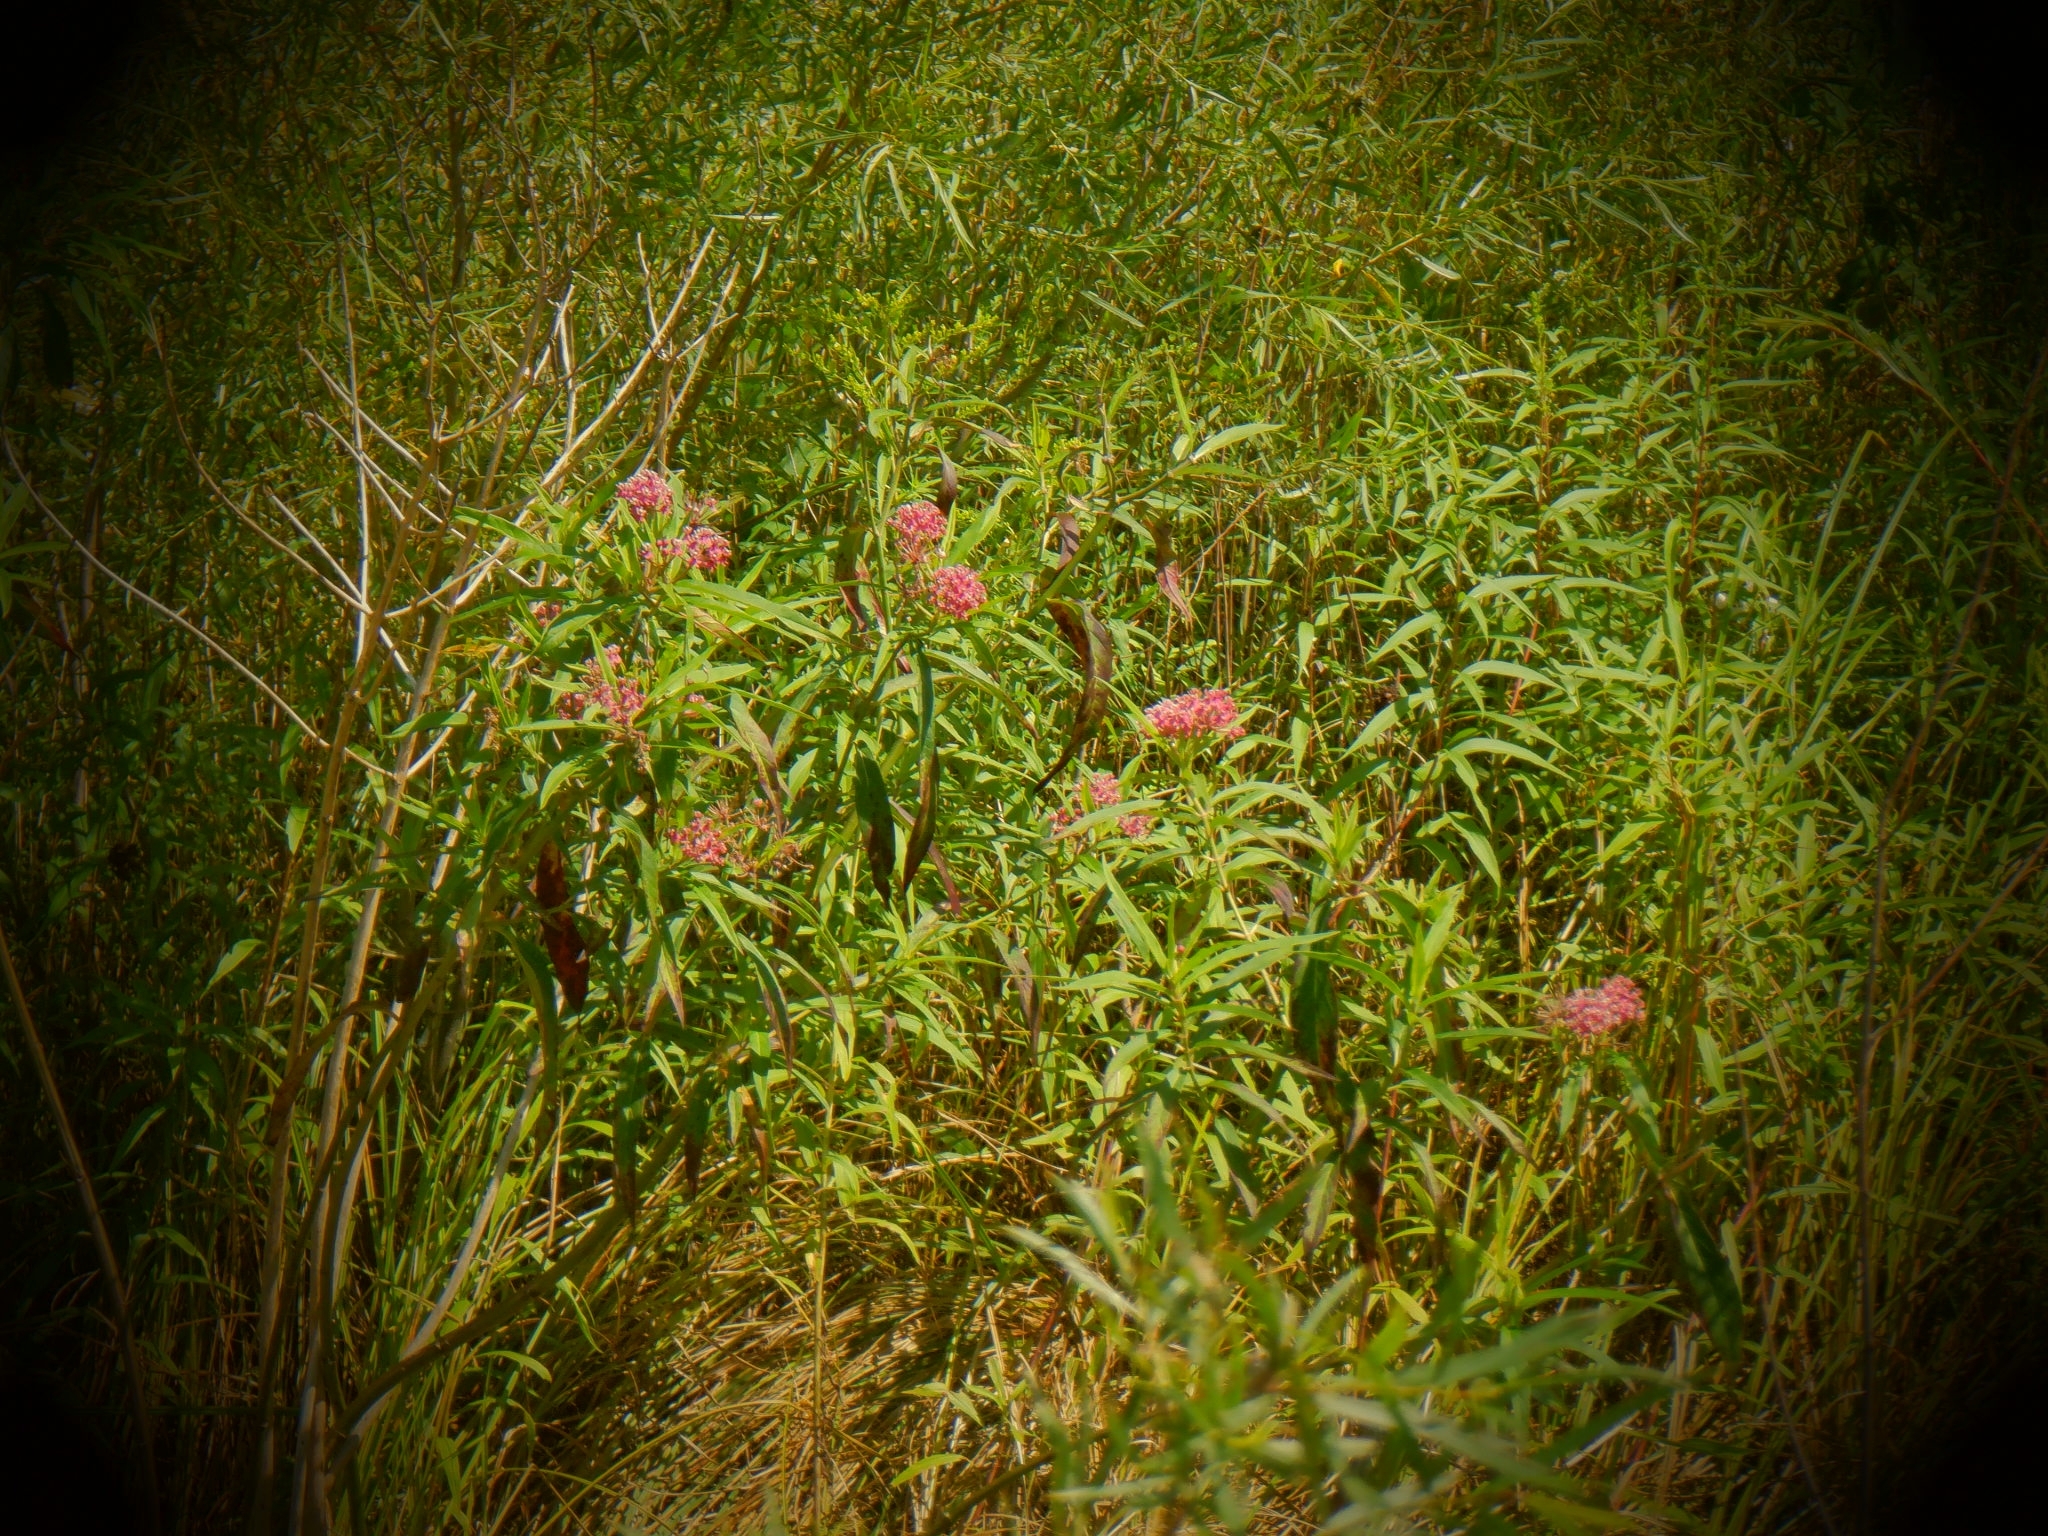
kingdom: Plantae
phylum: Tracheophyta
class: Magnoliopsida
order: Gentianales
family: Apocynaceae
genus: Asclepias
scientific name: Asclepias incarnata
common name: Swamp milkweed
